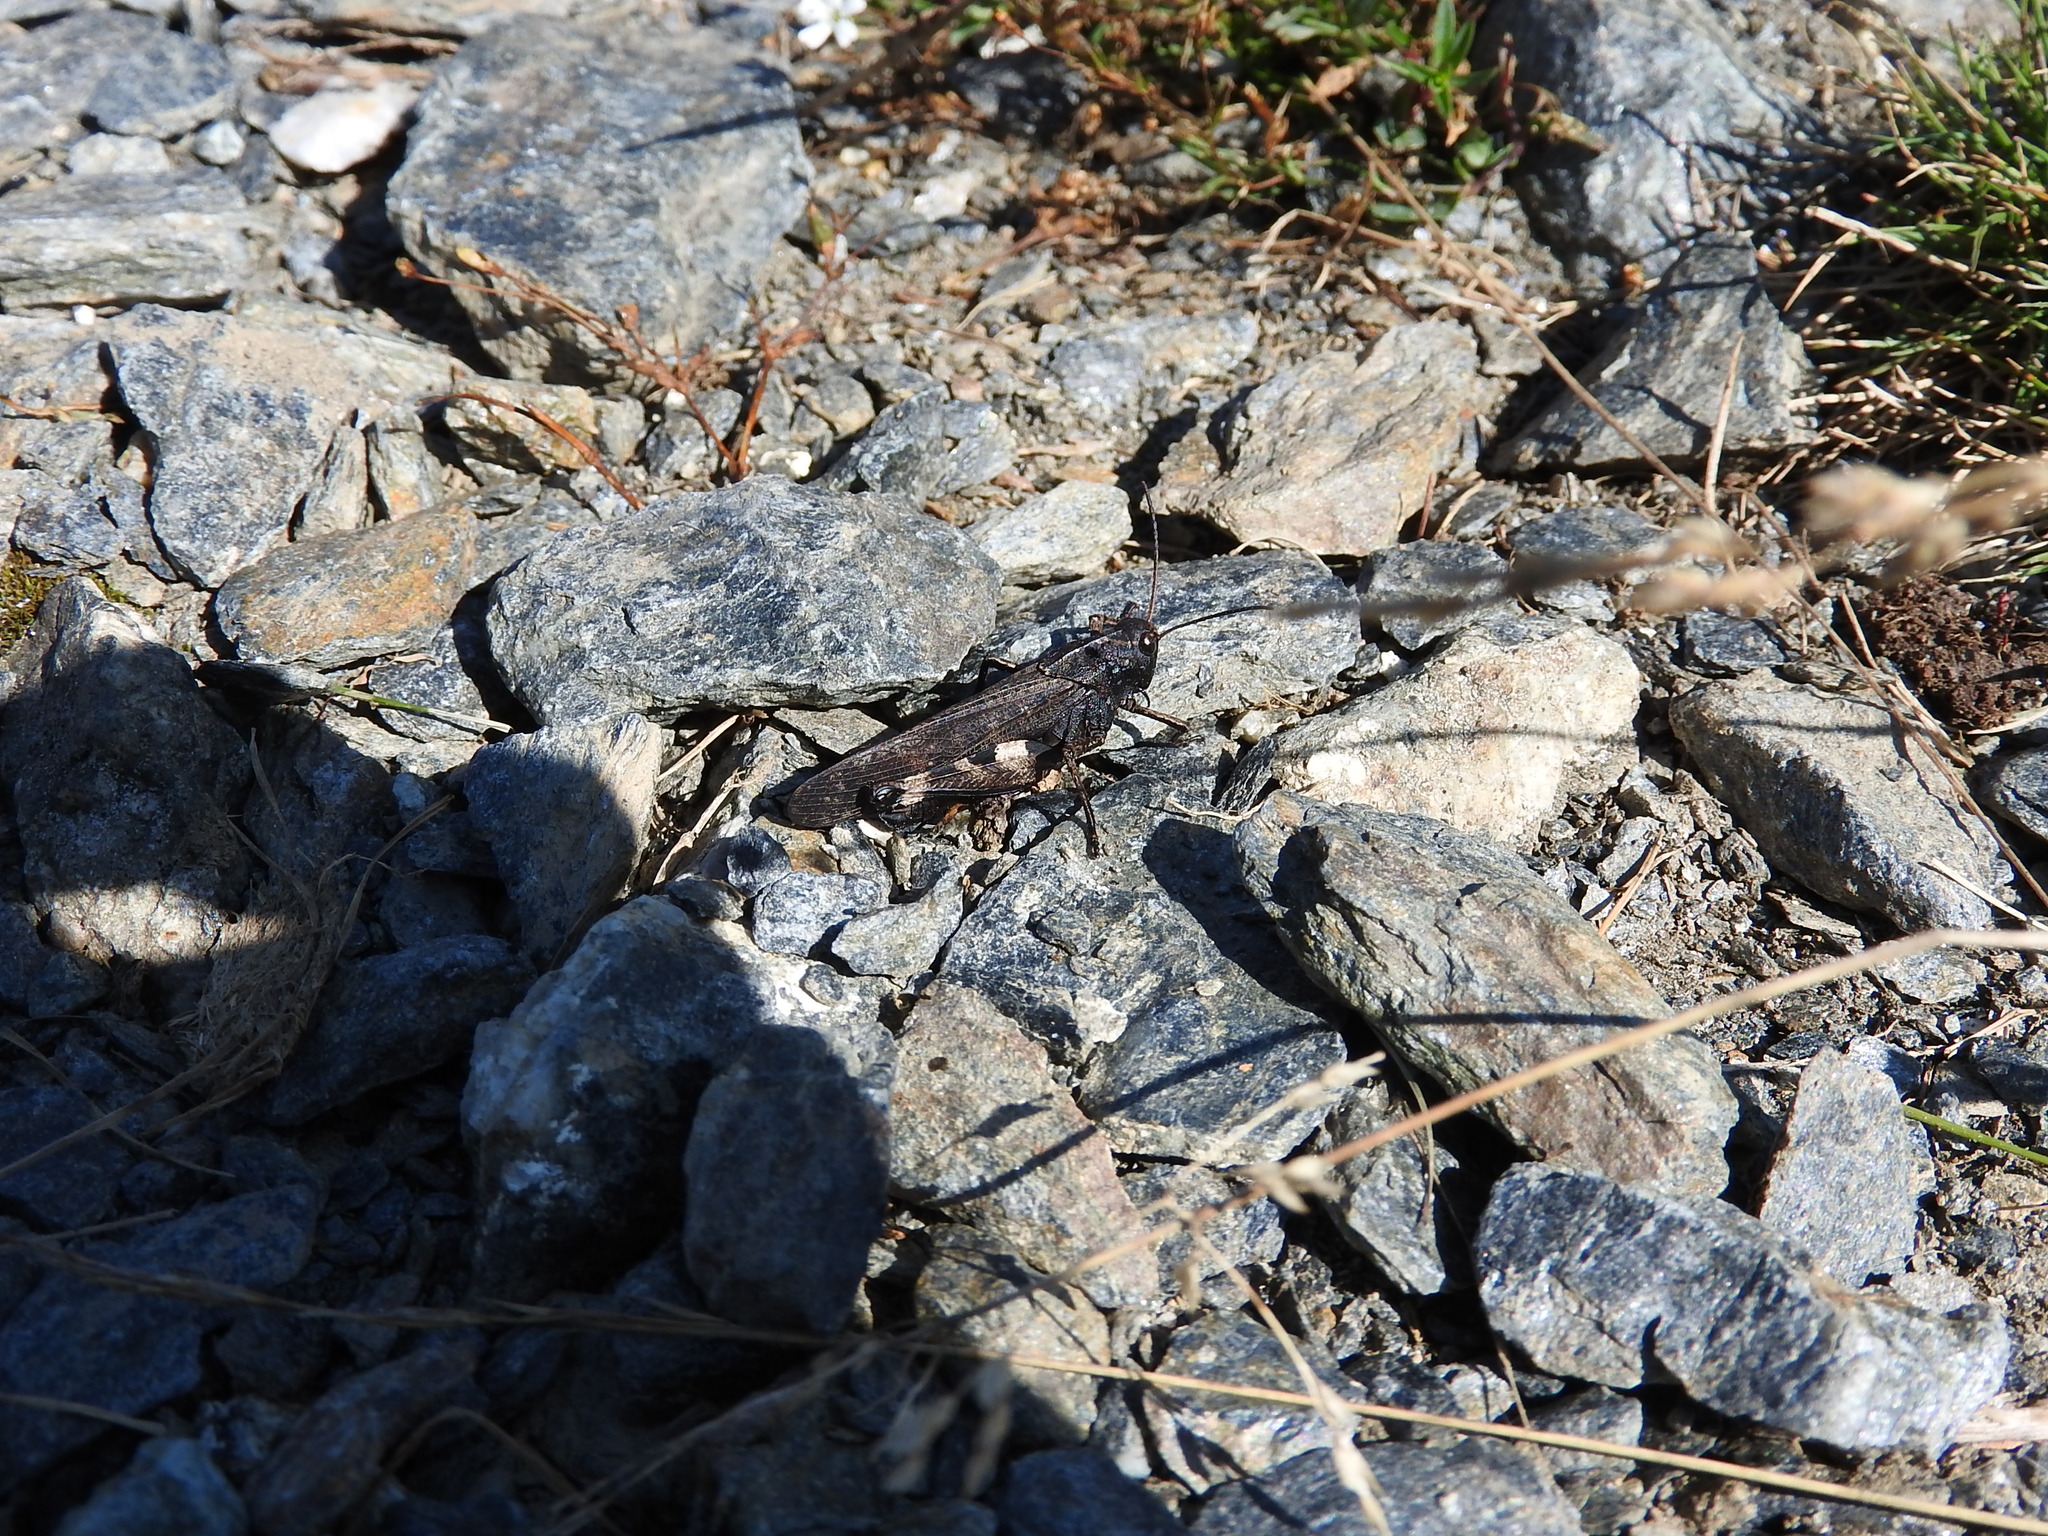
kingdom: Animalia
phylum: Arthropoda
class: Insecta
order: Orthoptera
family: Acrididae
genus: Psophus
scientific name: Psophus stridulus
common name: Rattle grasshopper
